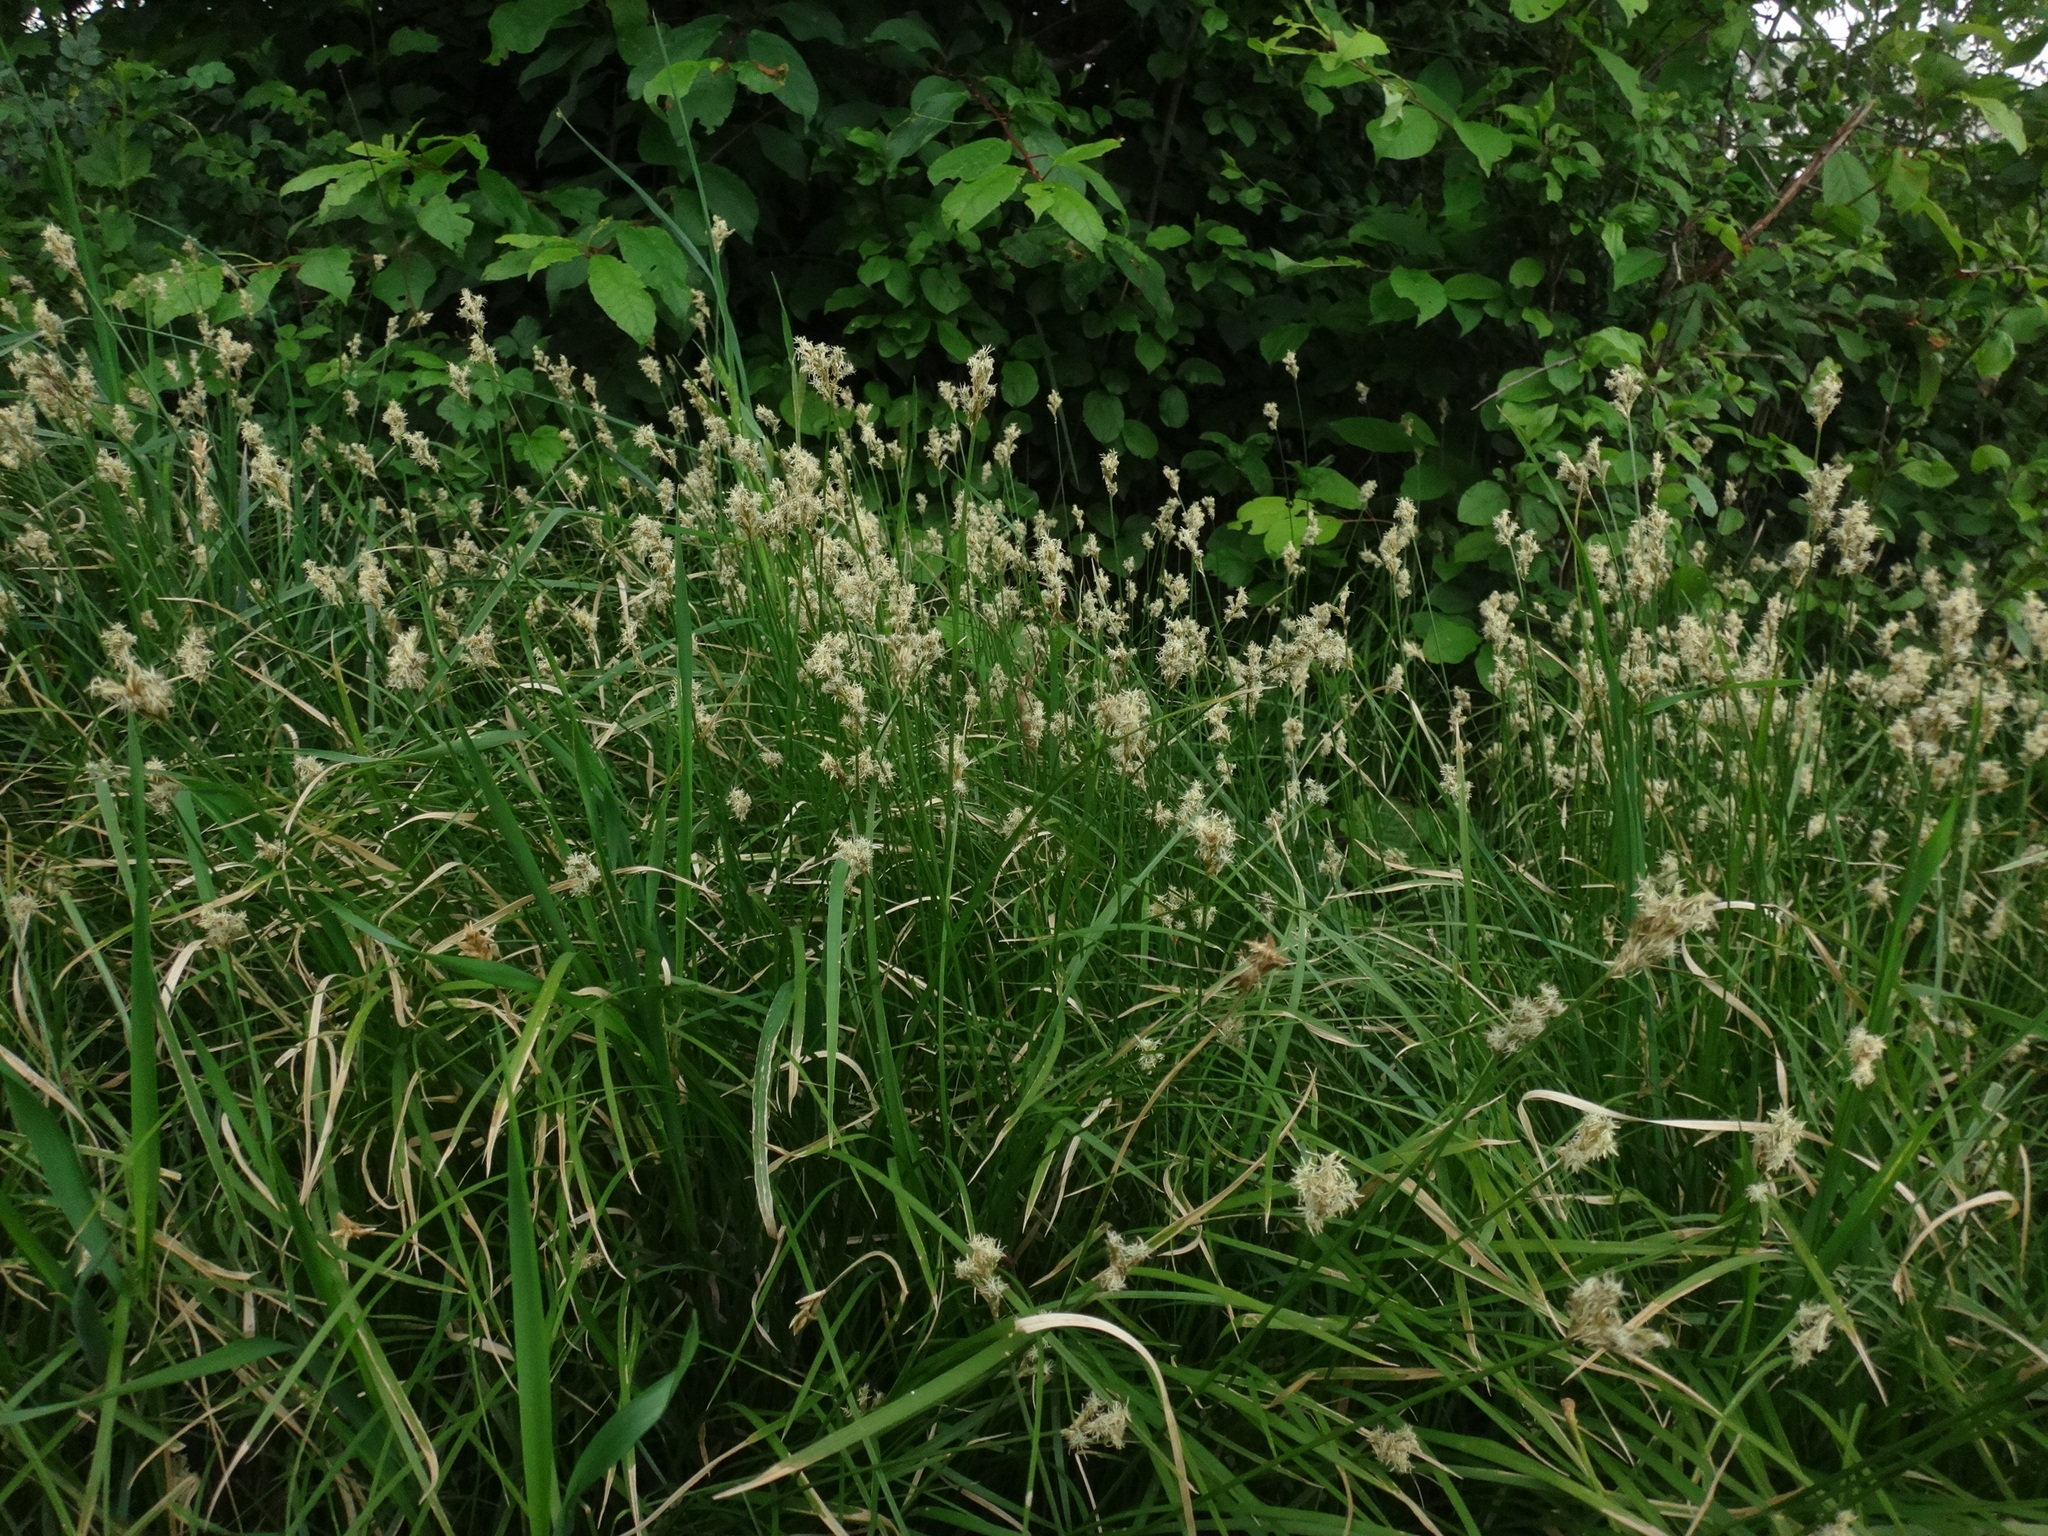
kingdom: Plantae
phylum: Tracheophyta
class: Liliopsida
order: Poales
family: Cyperaceae
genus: Carex
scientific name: Carex brizoides
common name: Quaking-grass sedge
